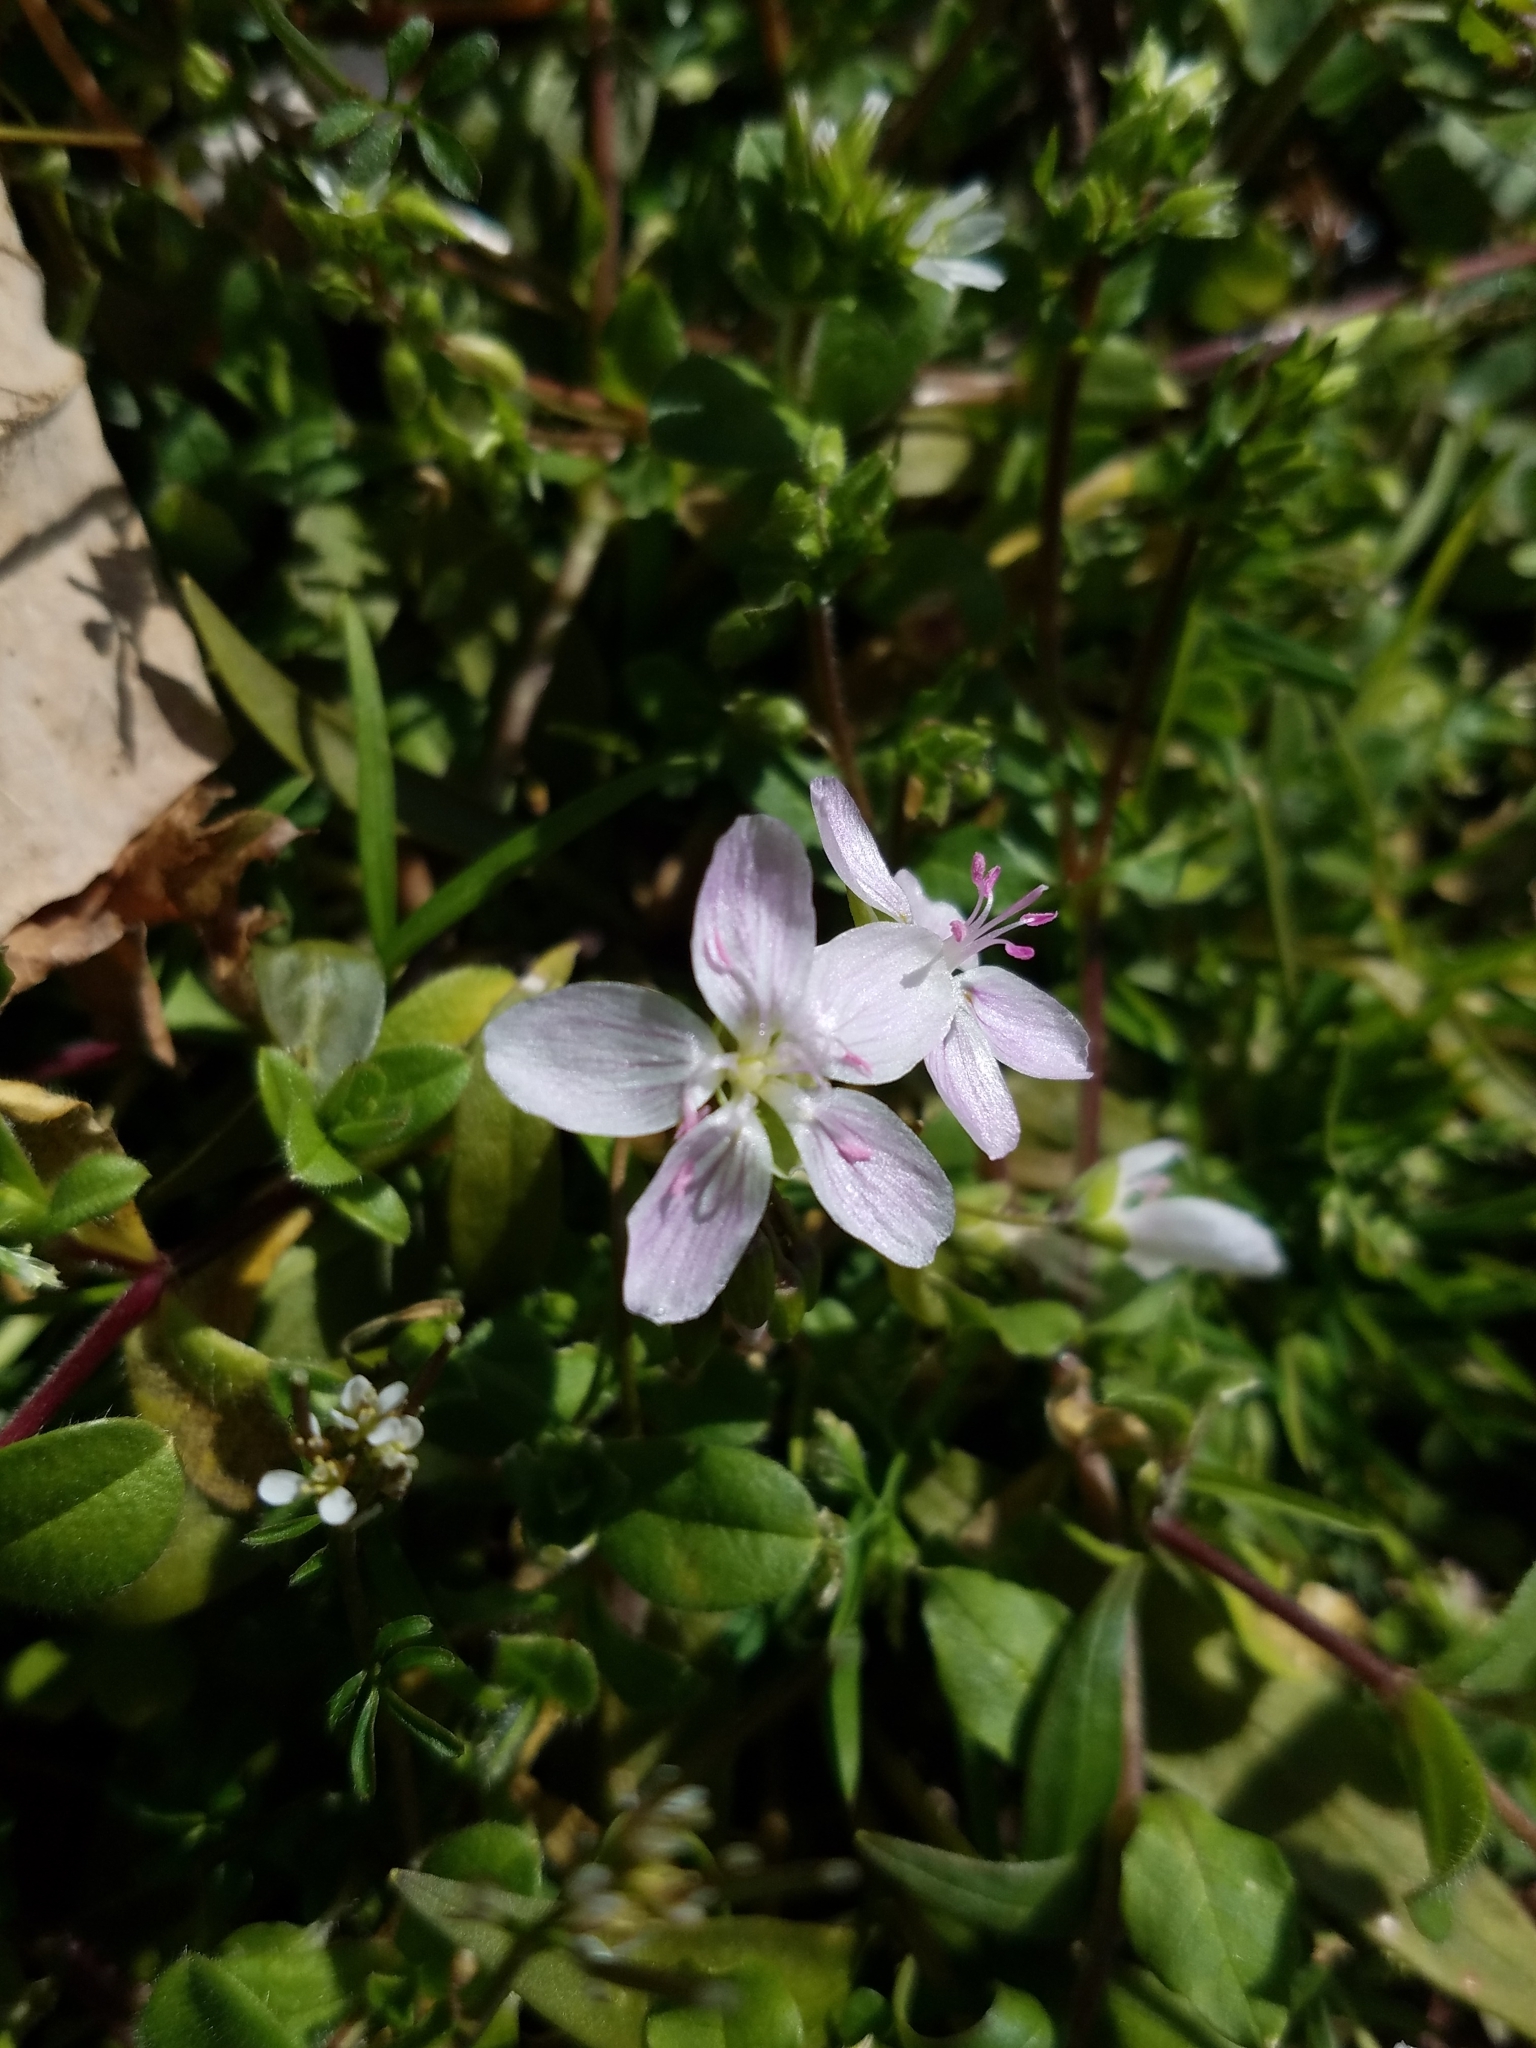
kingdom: Plantae
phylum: Tracheophyta
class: Magnoliopsida
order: Caryophyllales
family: Montiaceae
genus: Claytonia
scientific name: Claytonia virginica
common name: Virginia springbeauty
